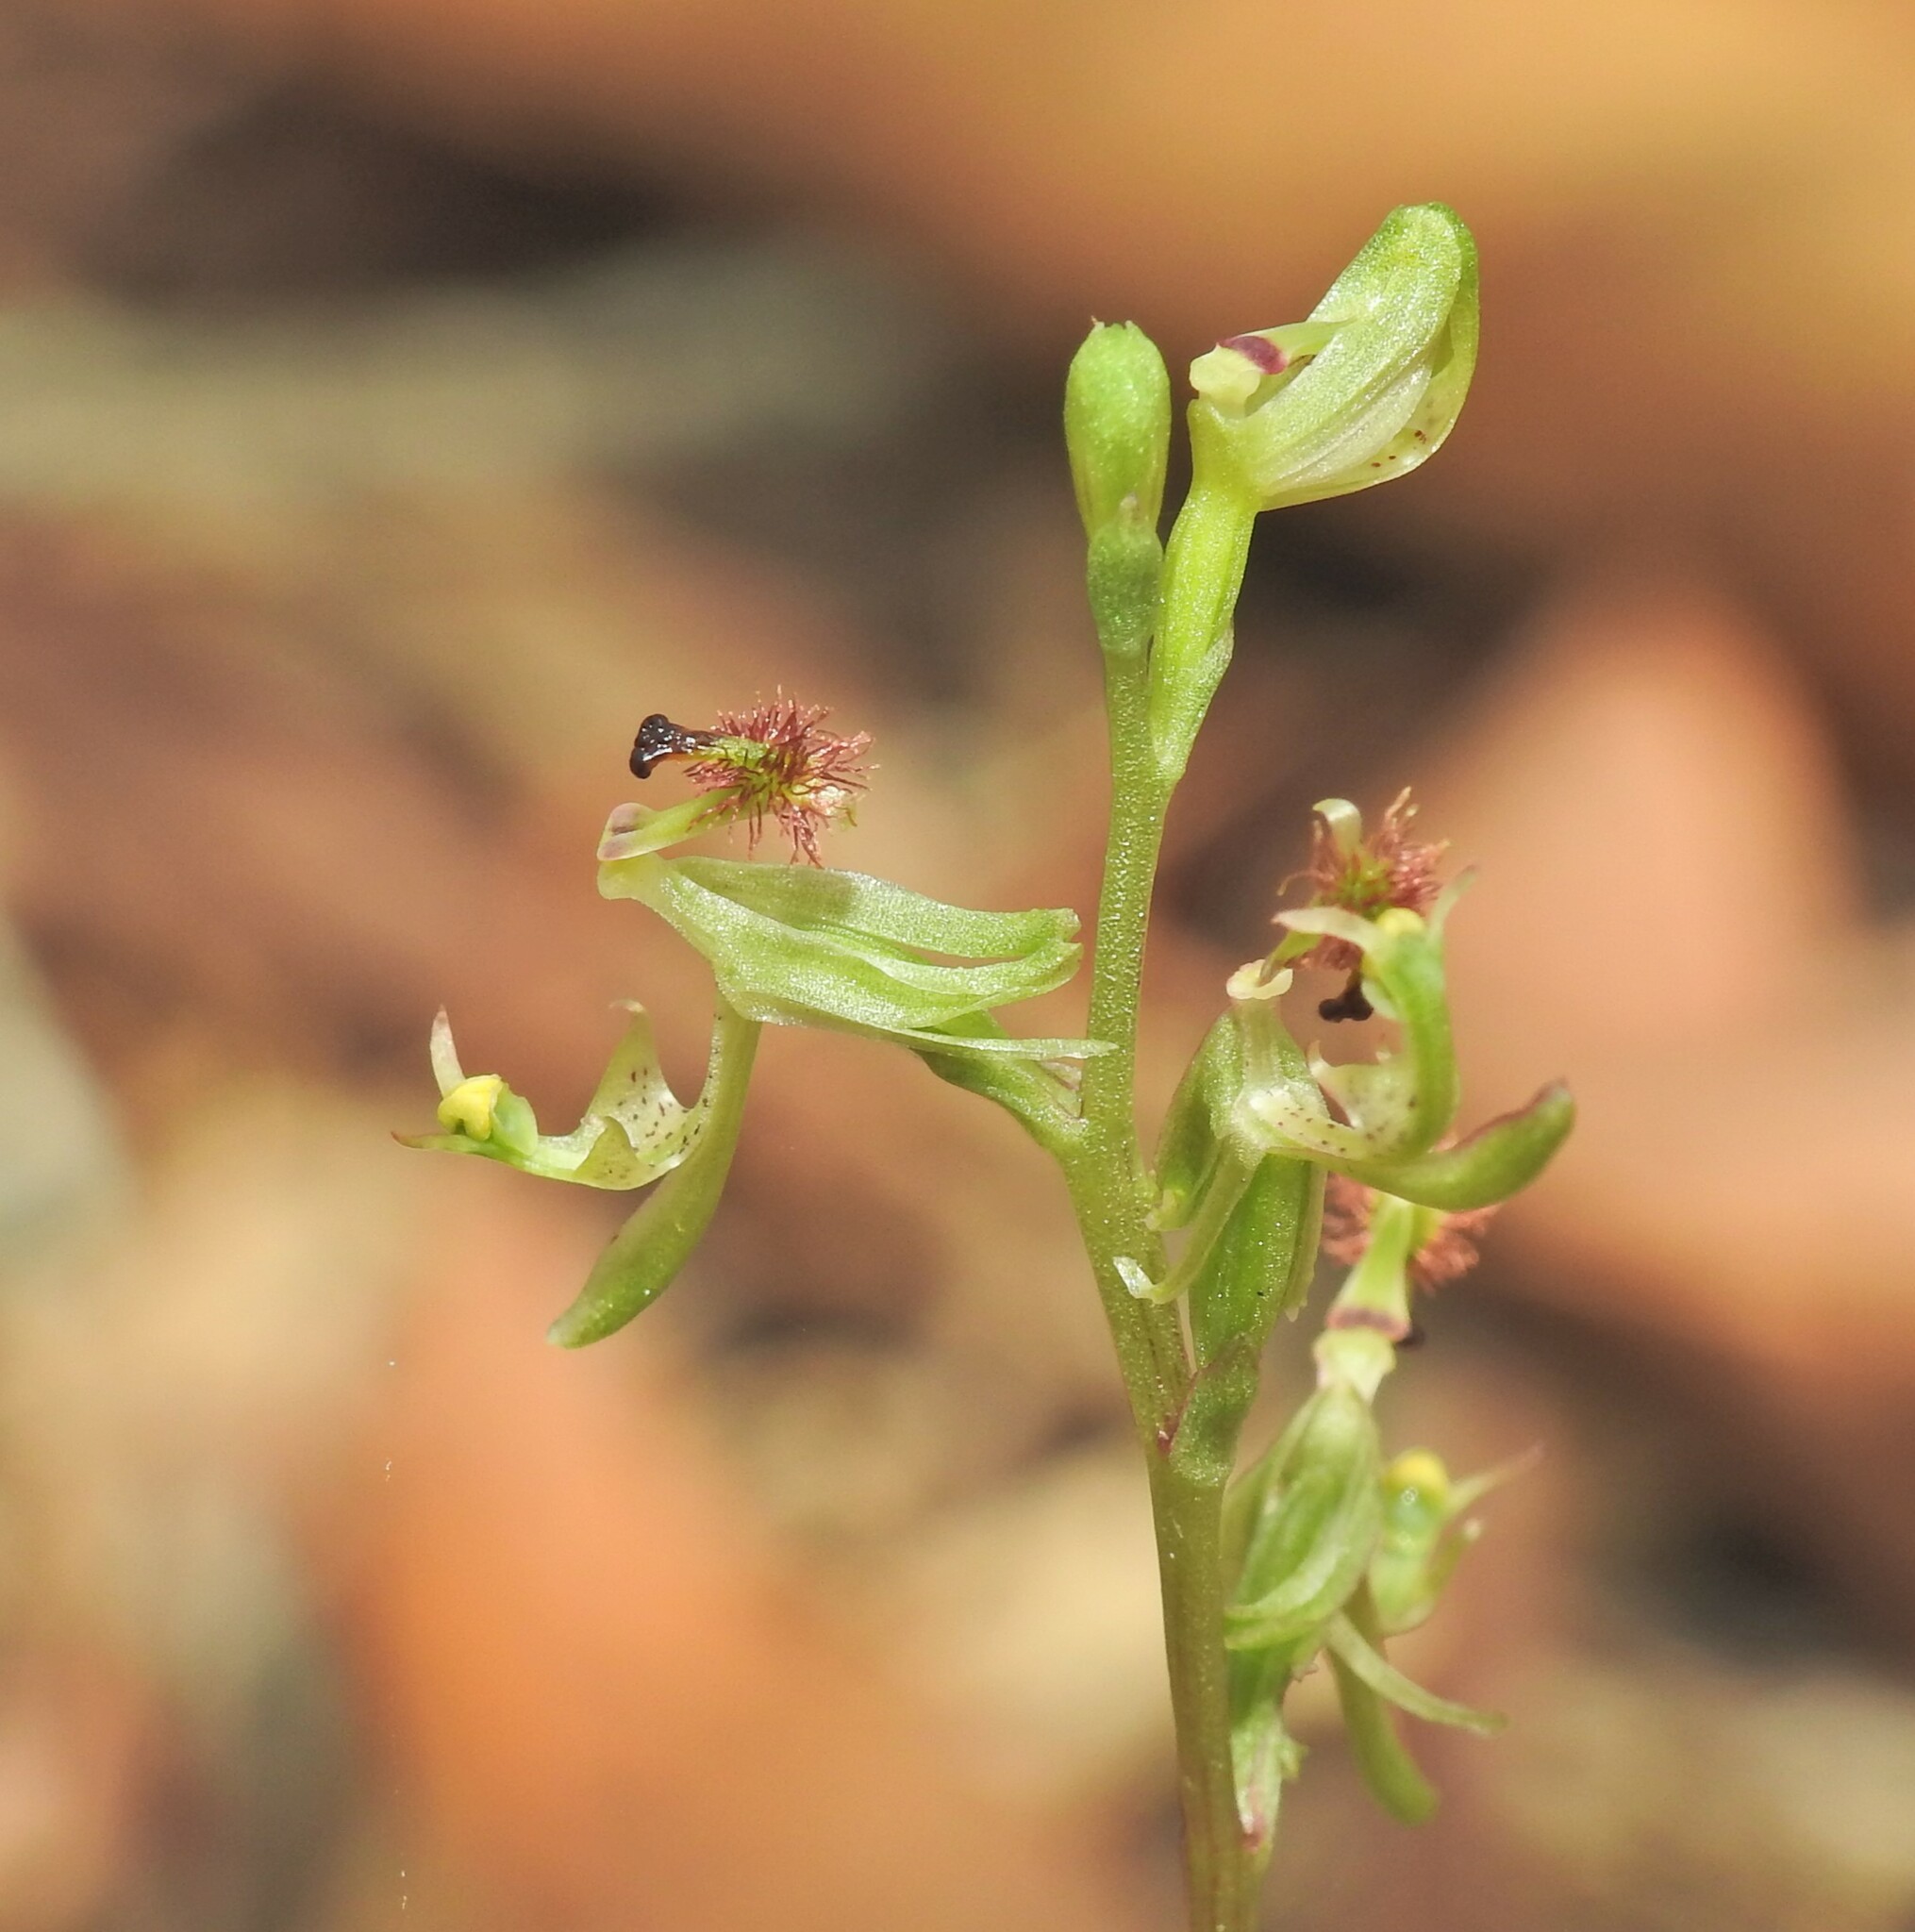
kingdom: Plantae
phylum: Tracheophyta
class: Liliopsida
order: Asparagales
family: Orchidaceae
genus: Arthrochilus
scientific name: Arthrochilus prolixus
